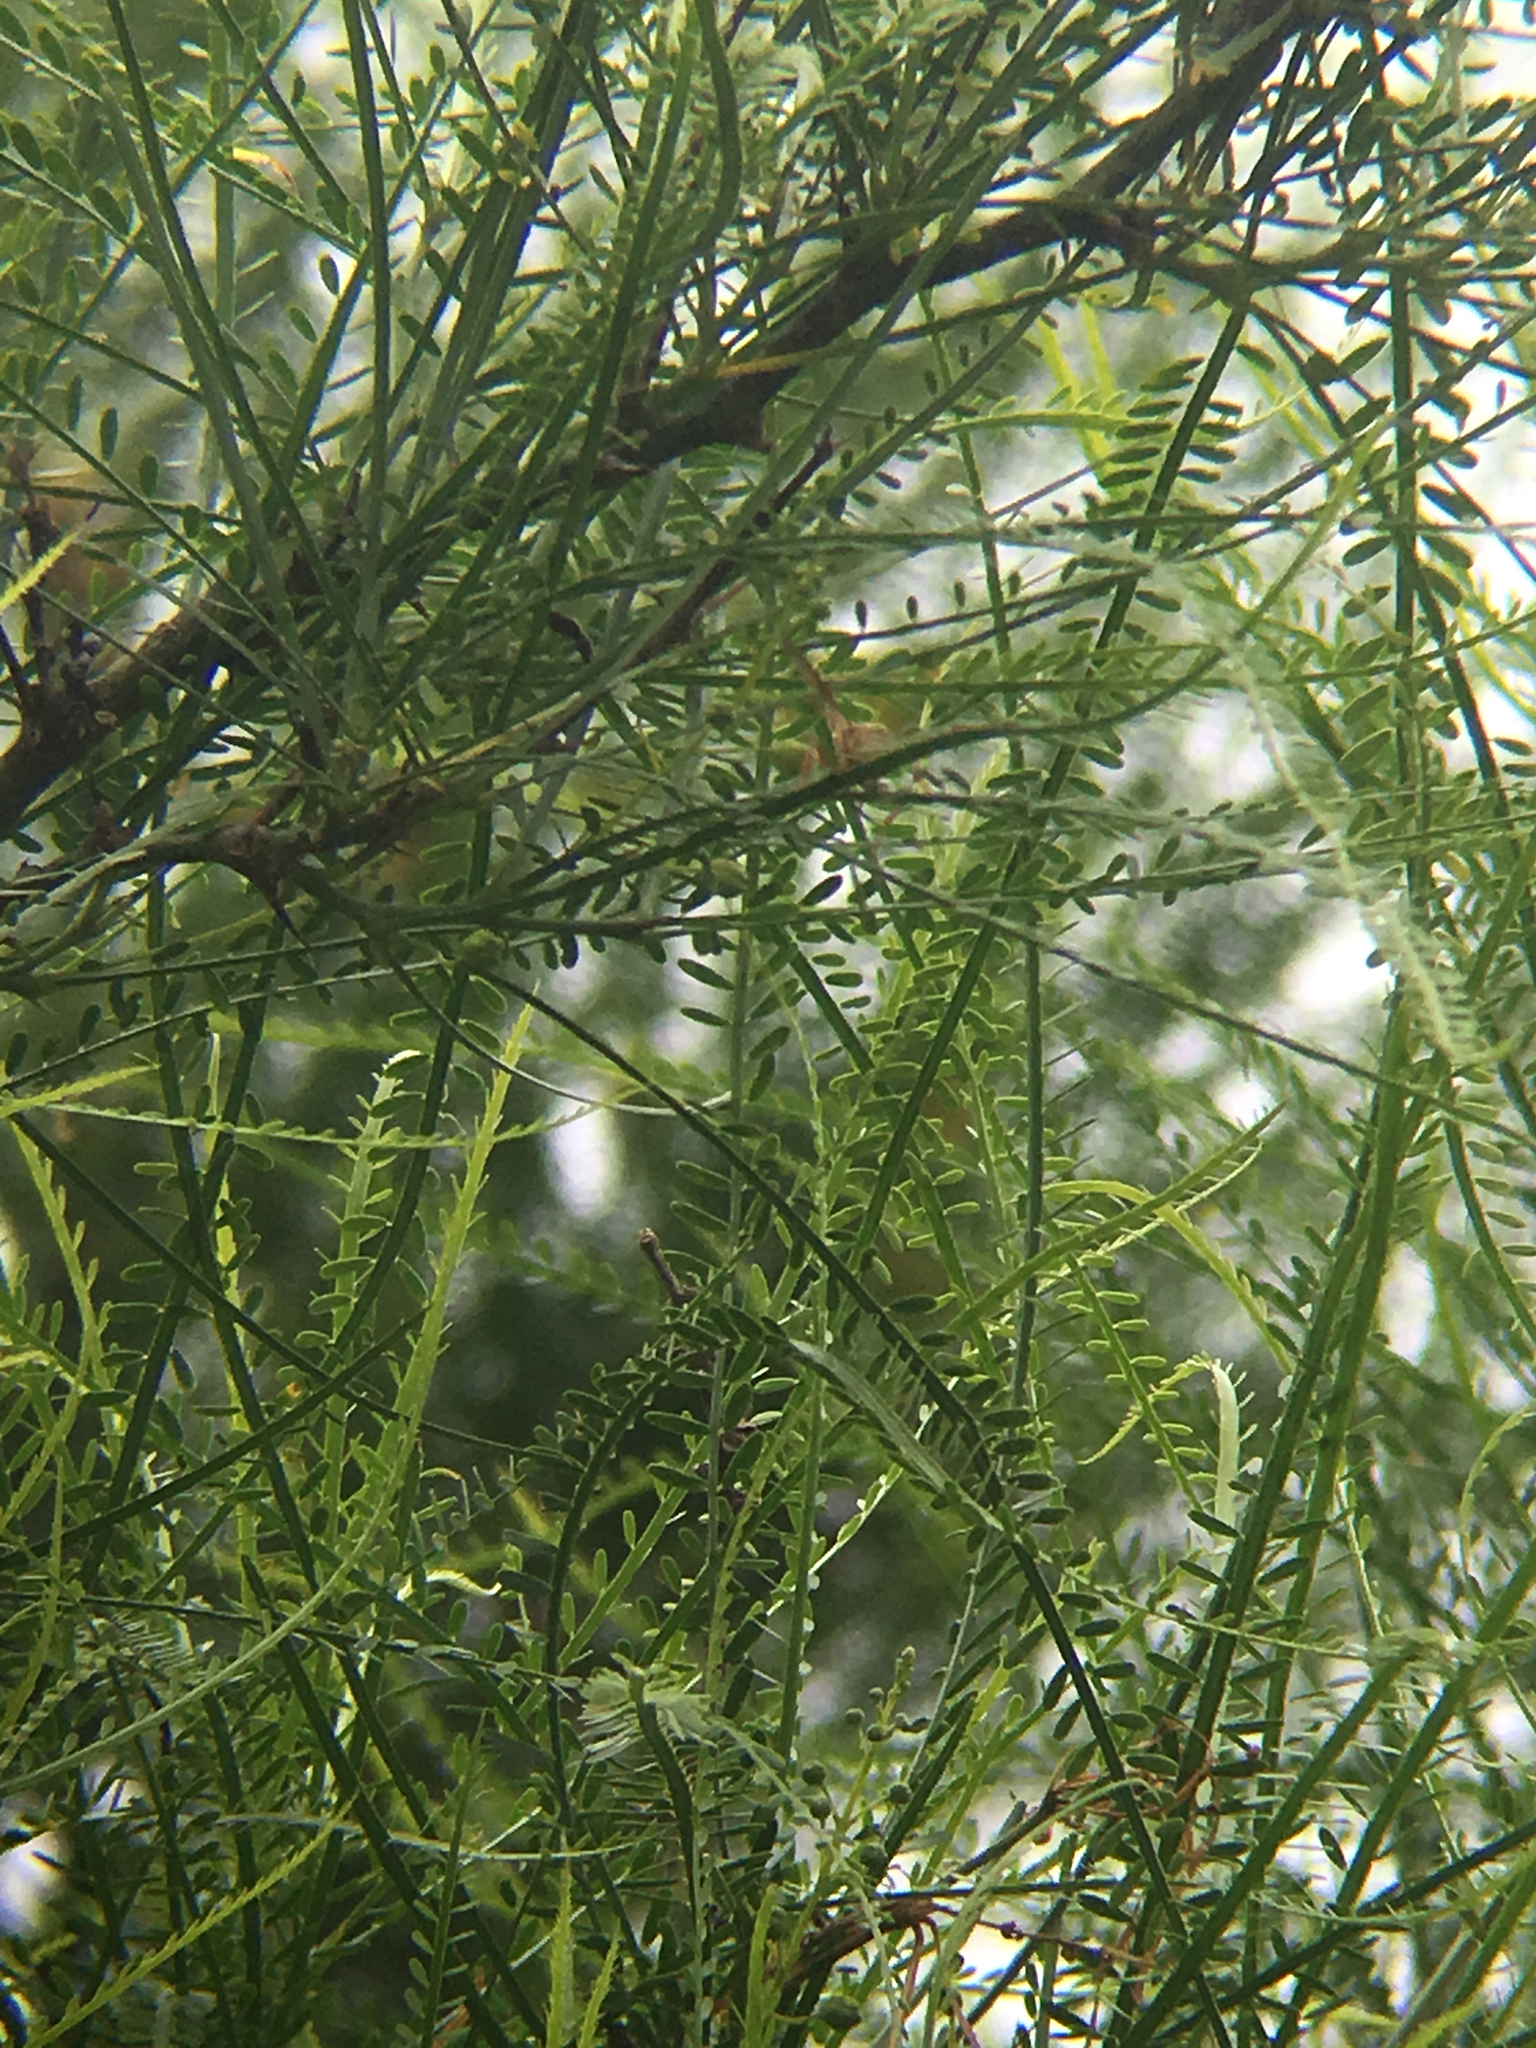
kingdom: Animalia
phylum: Arthropoda
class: Insecta
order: Hymenoptera
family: Eumenidae
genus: Polistes
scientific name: Polistes
